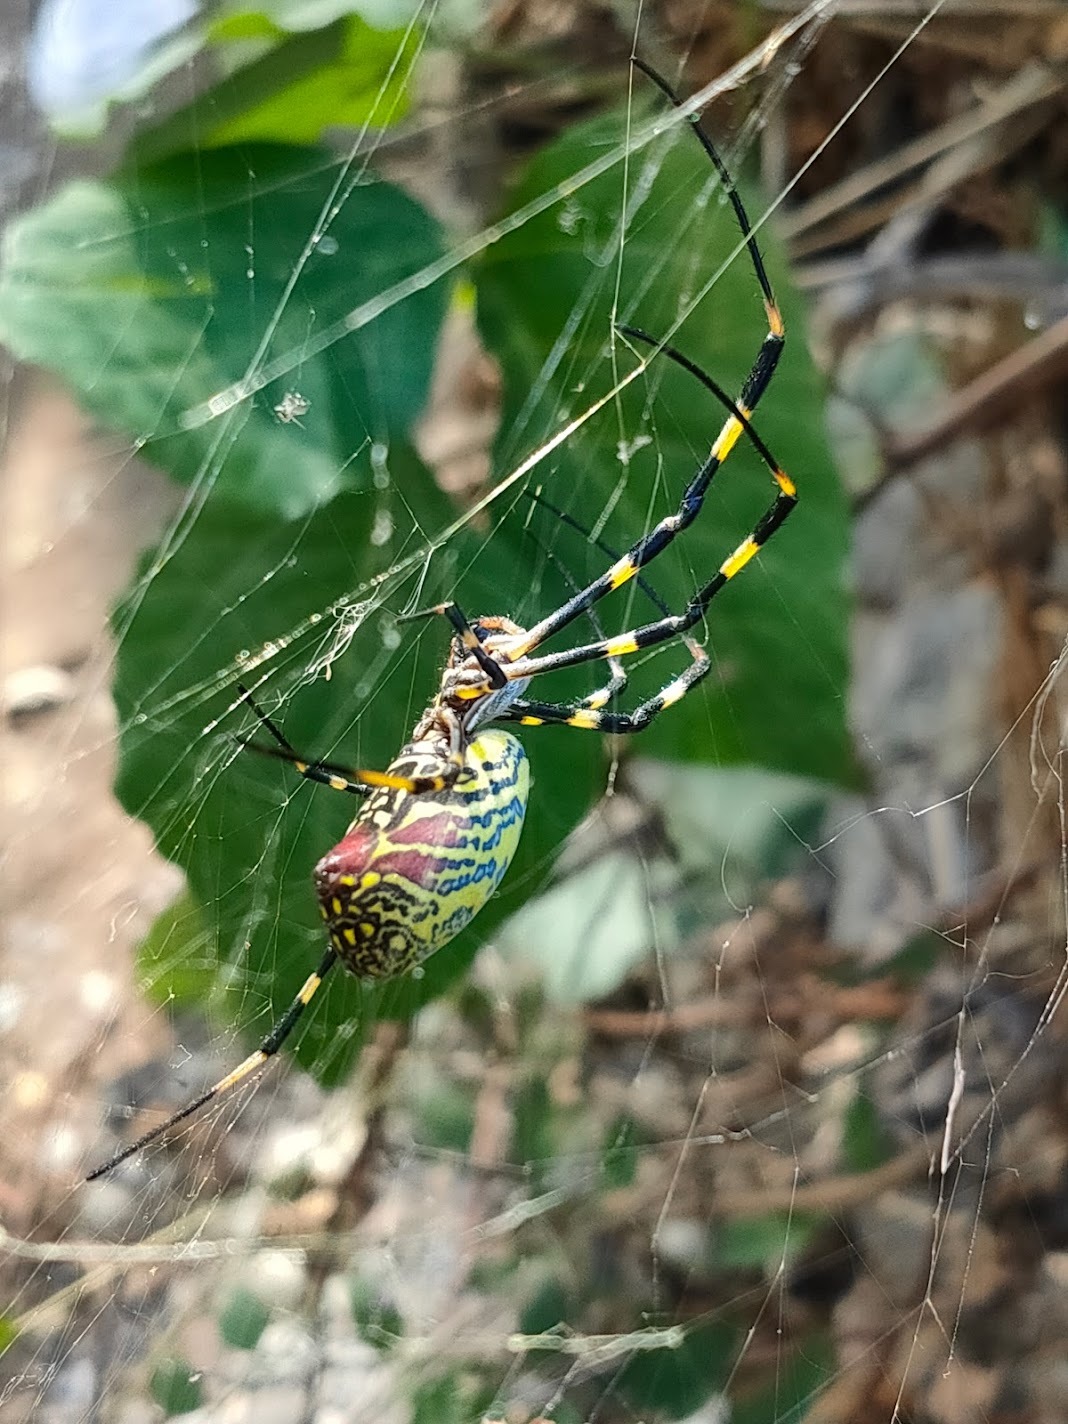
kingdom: Animalia
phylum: Arthropoda
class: Arachnida
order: Araneae
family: Araneidae
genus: Trichonephila
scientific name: Trichonephila clavata
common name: Jorō spider
